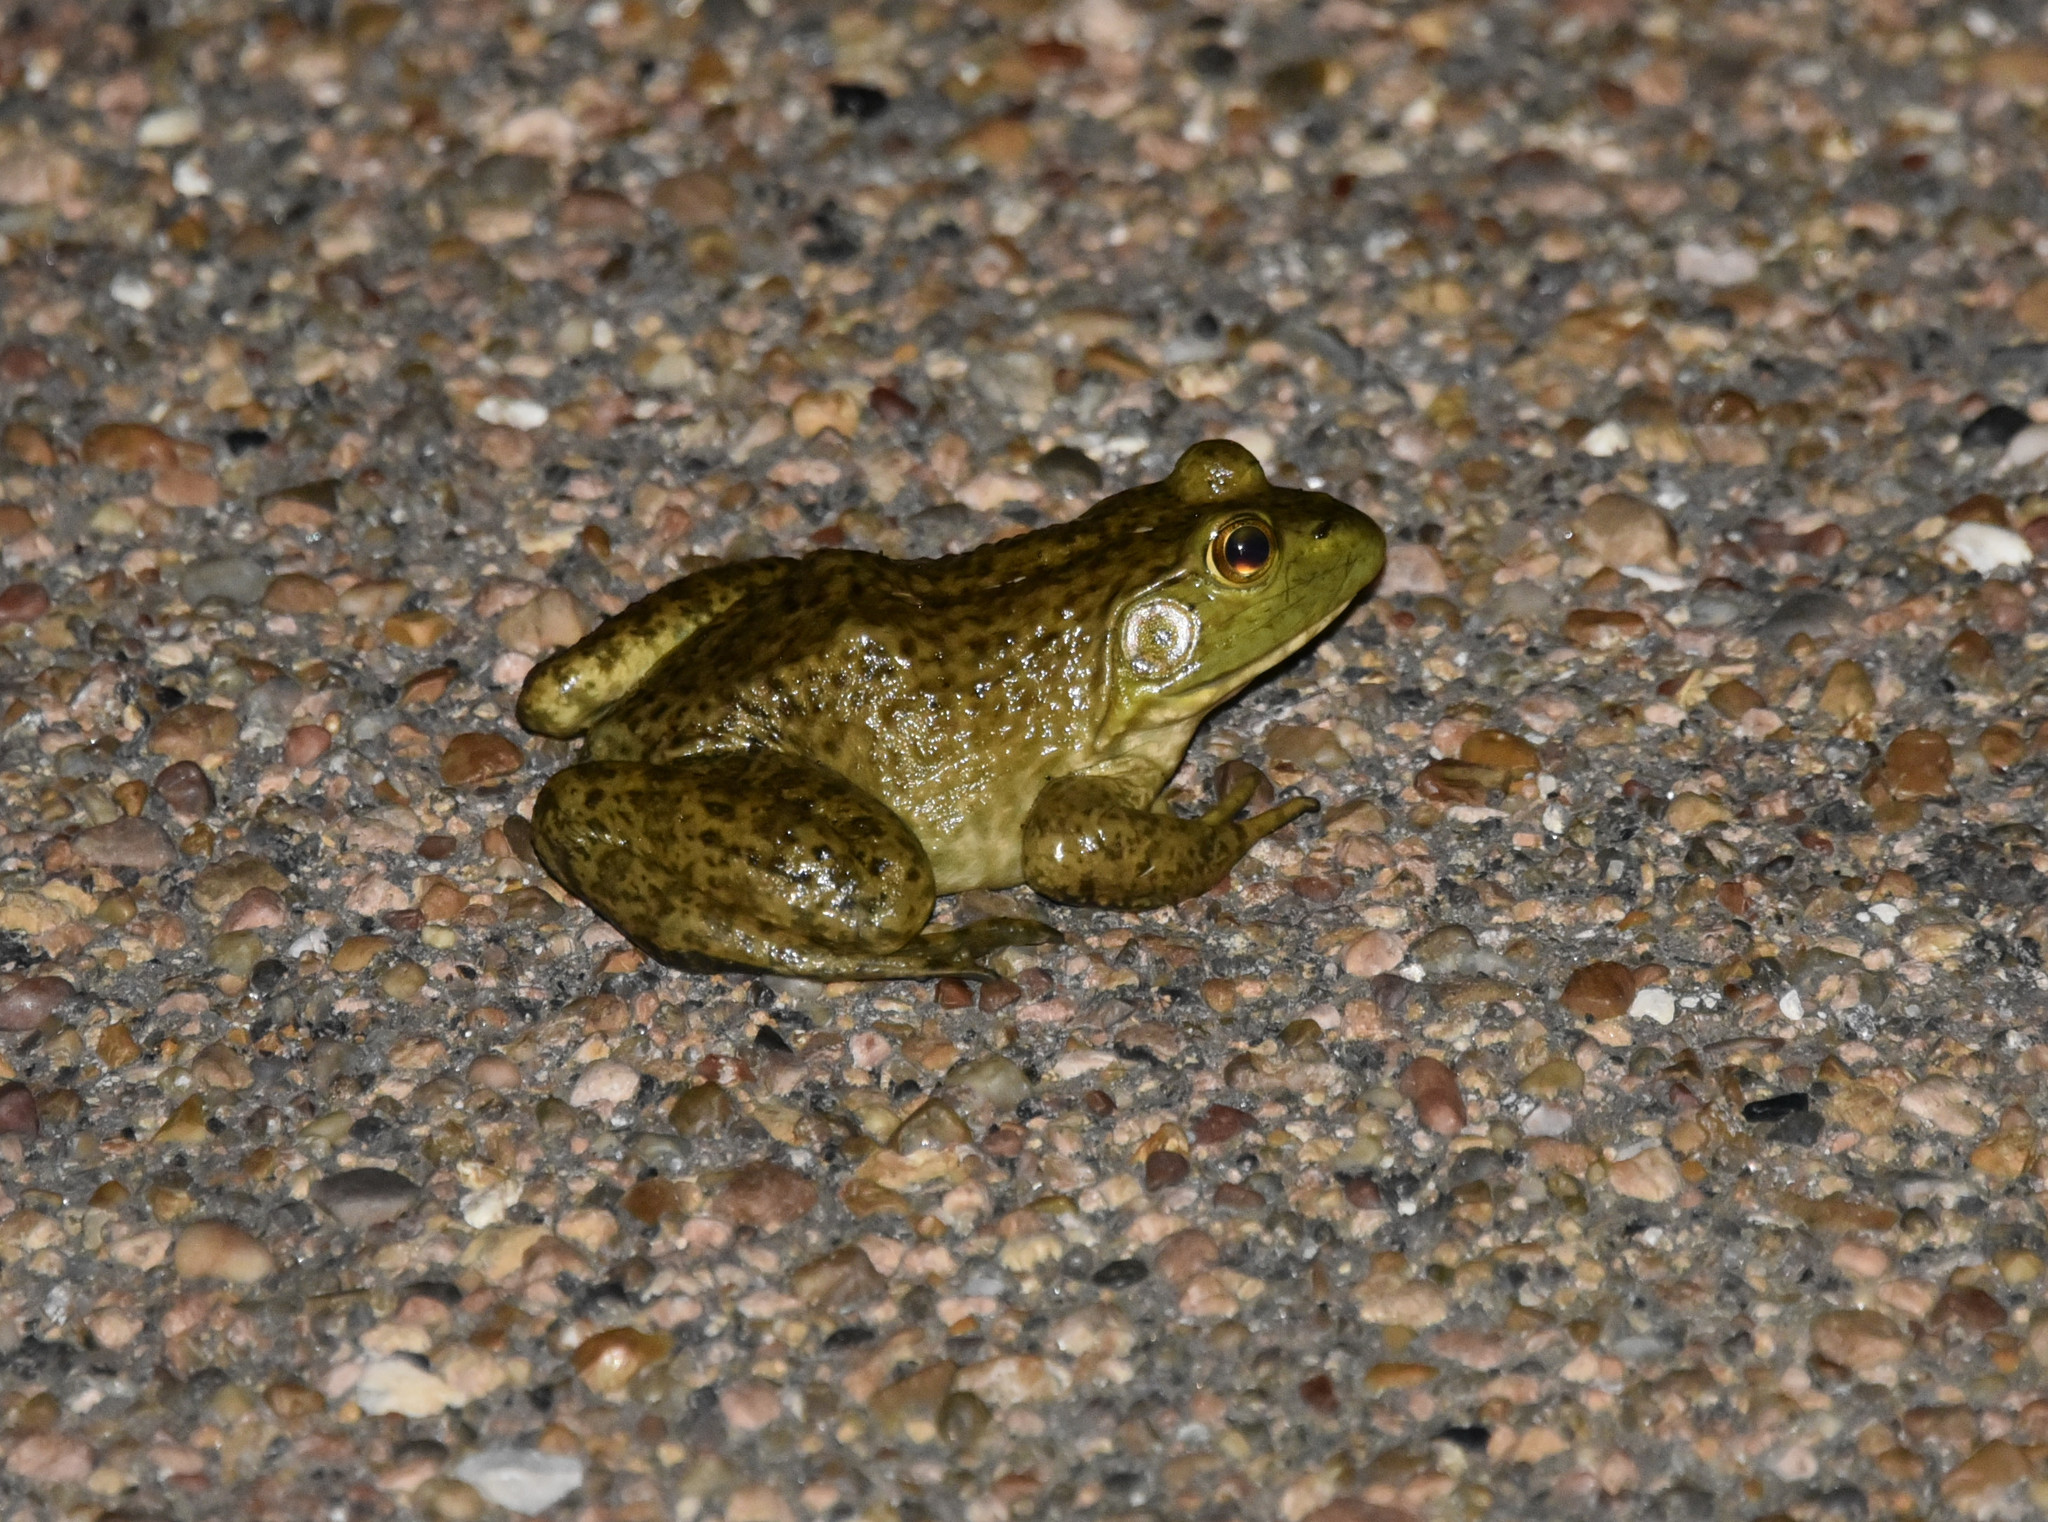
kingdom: Animalia
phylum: Chordata
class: Amphibia
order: Anura
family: Ranidae
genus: Lithobates
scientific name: Lithobates catesbeianus
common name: American bullfrog
